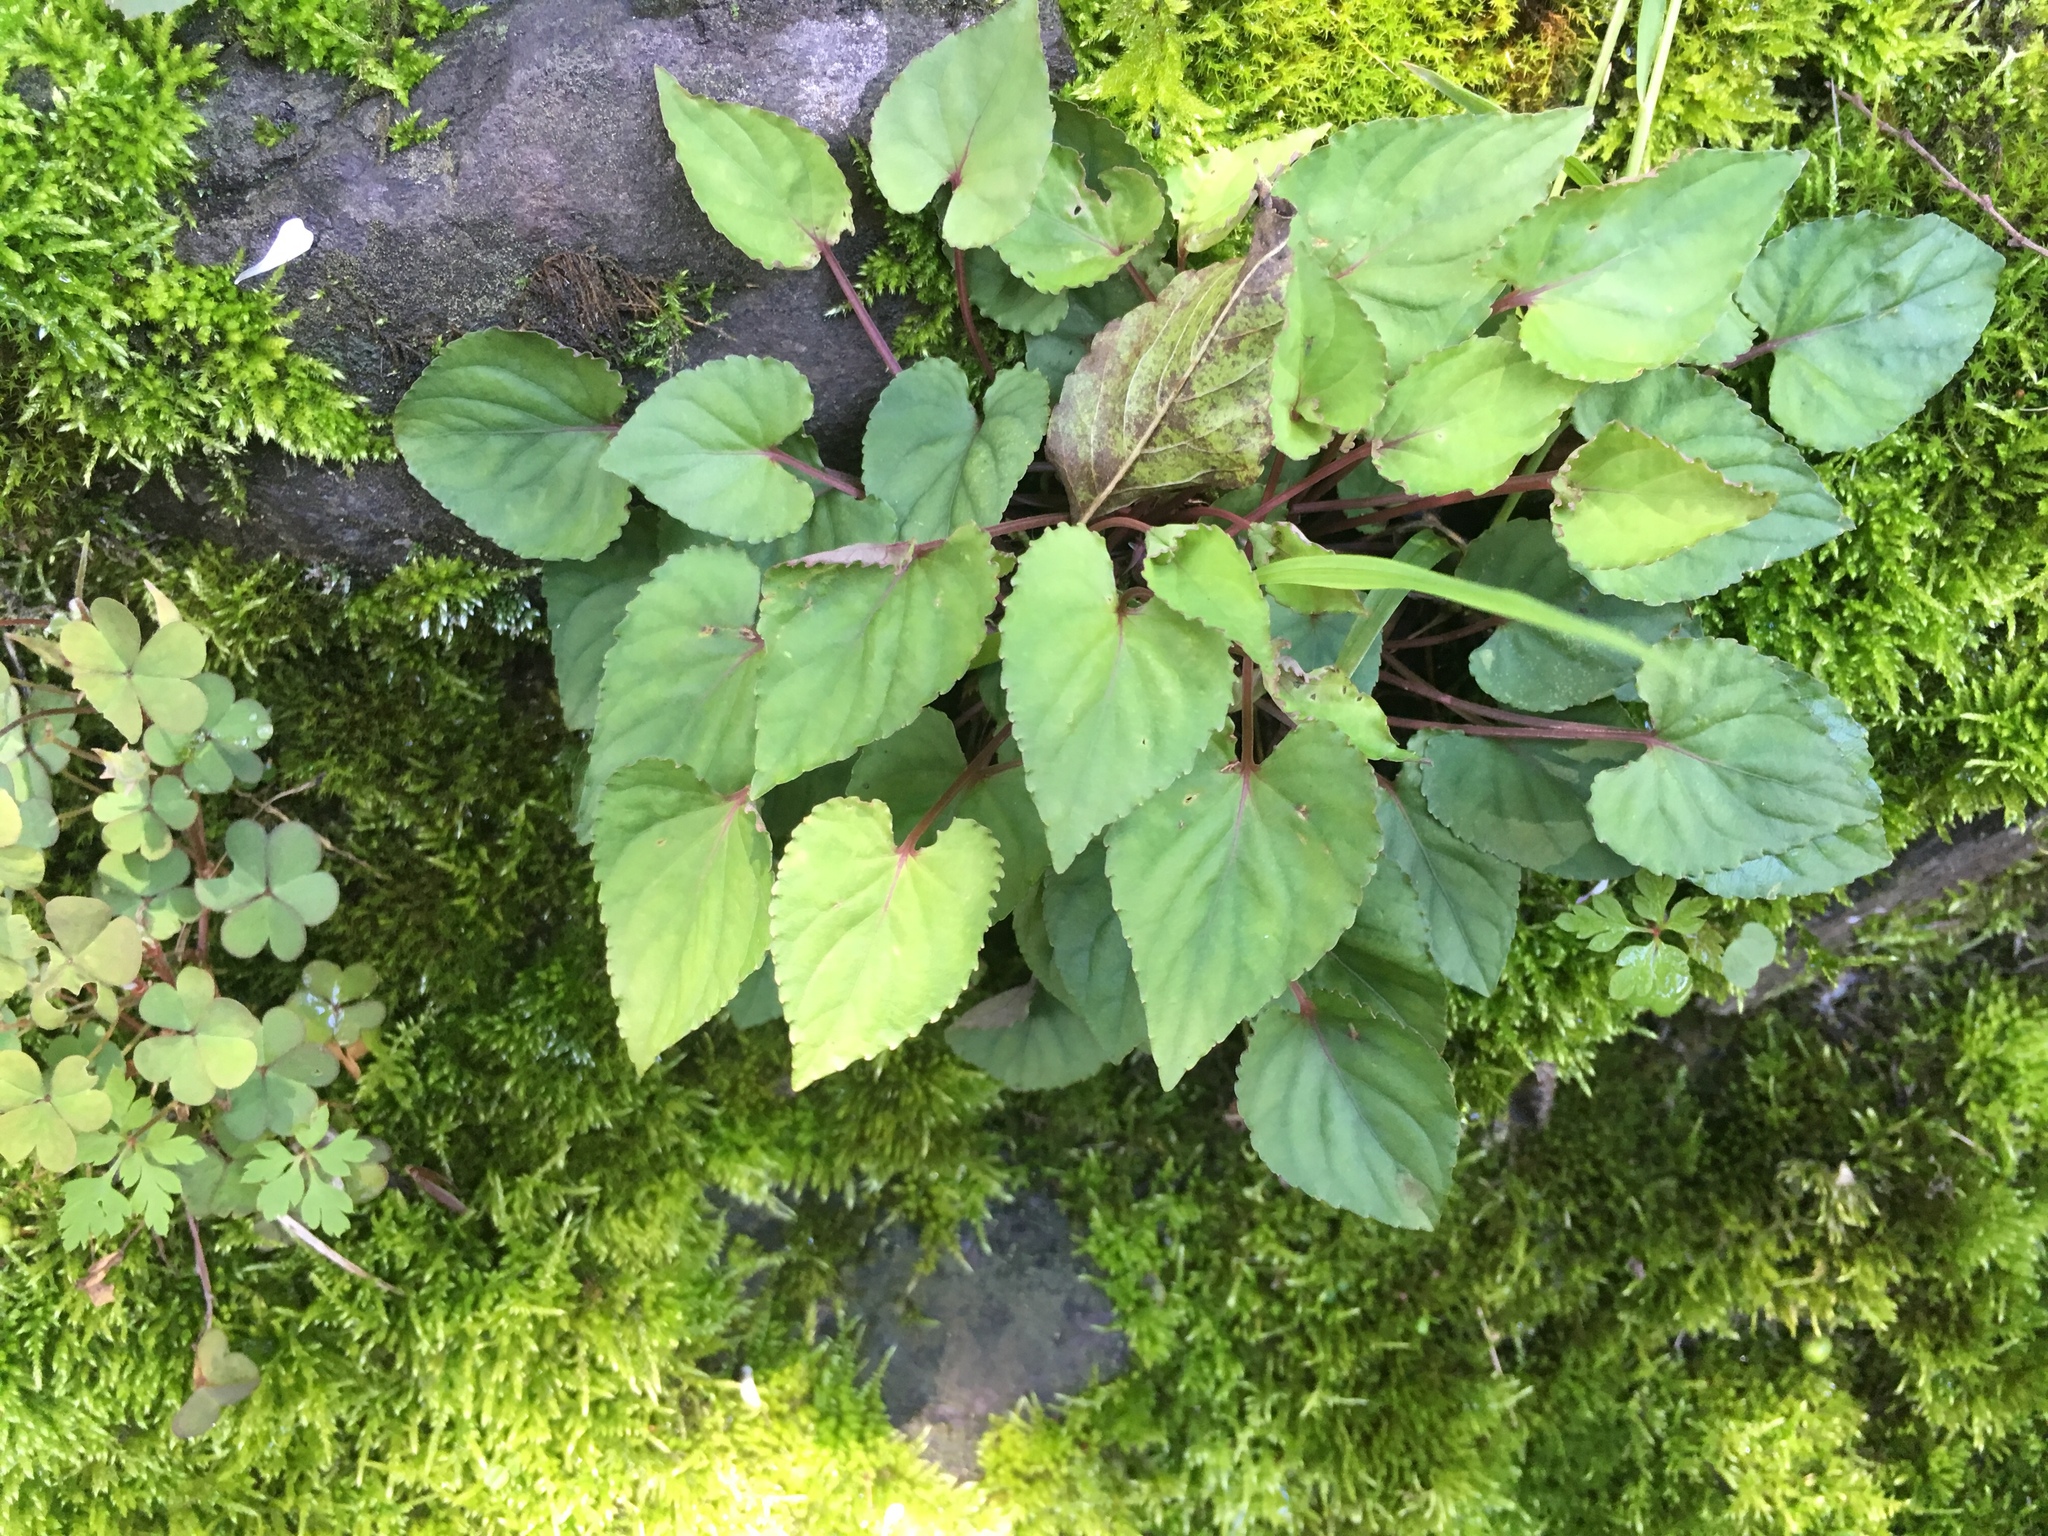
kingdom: Plantae
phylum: Tracheophyta
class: Magnoliopsida
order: Malpighiales
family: Violaceae
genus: Viola
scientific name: Viola shinchikuensis
